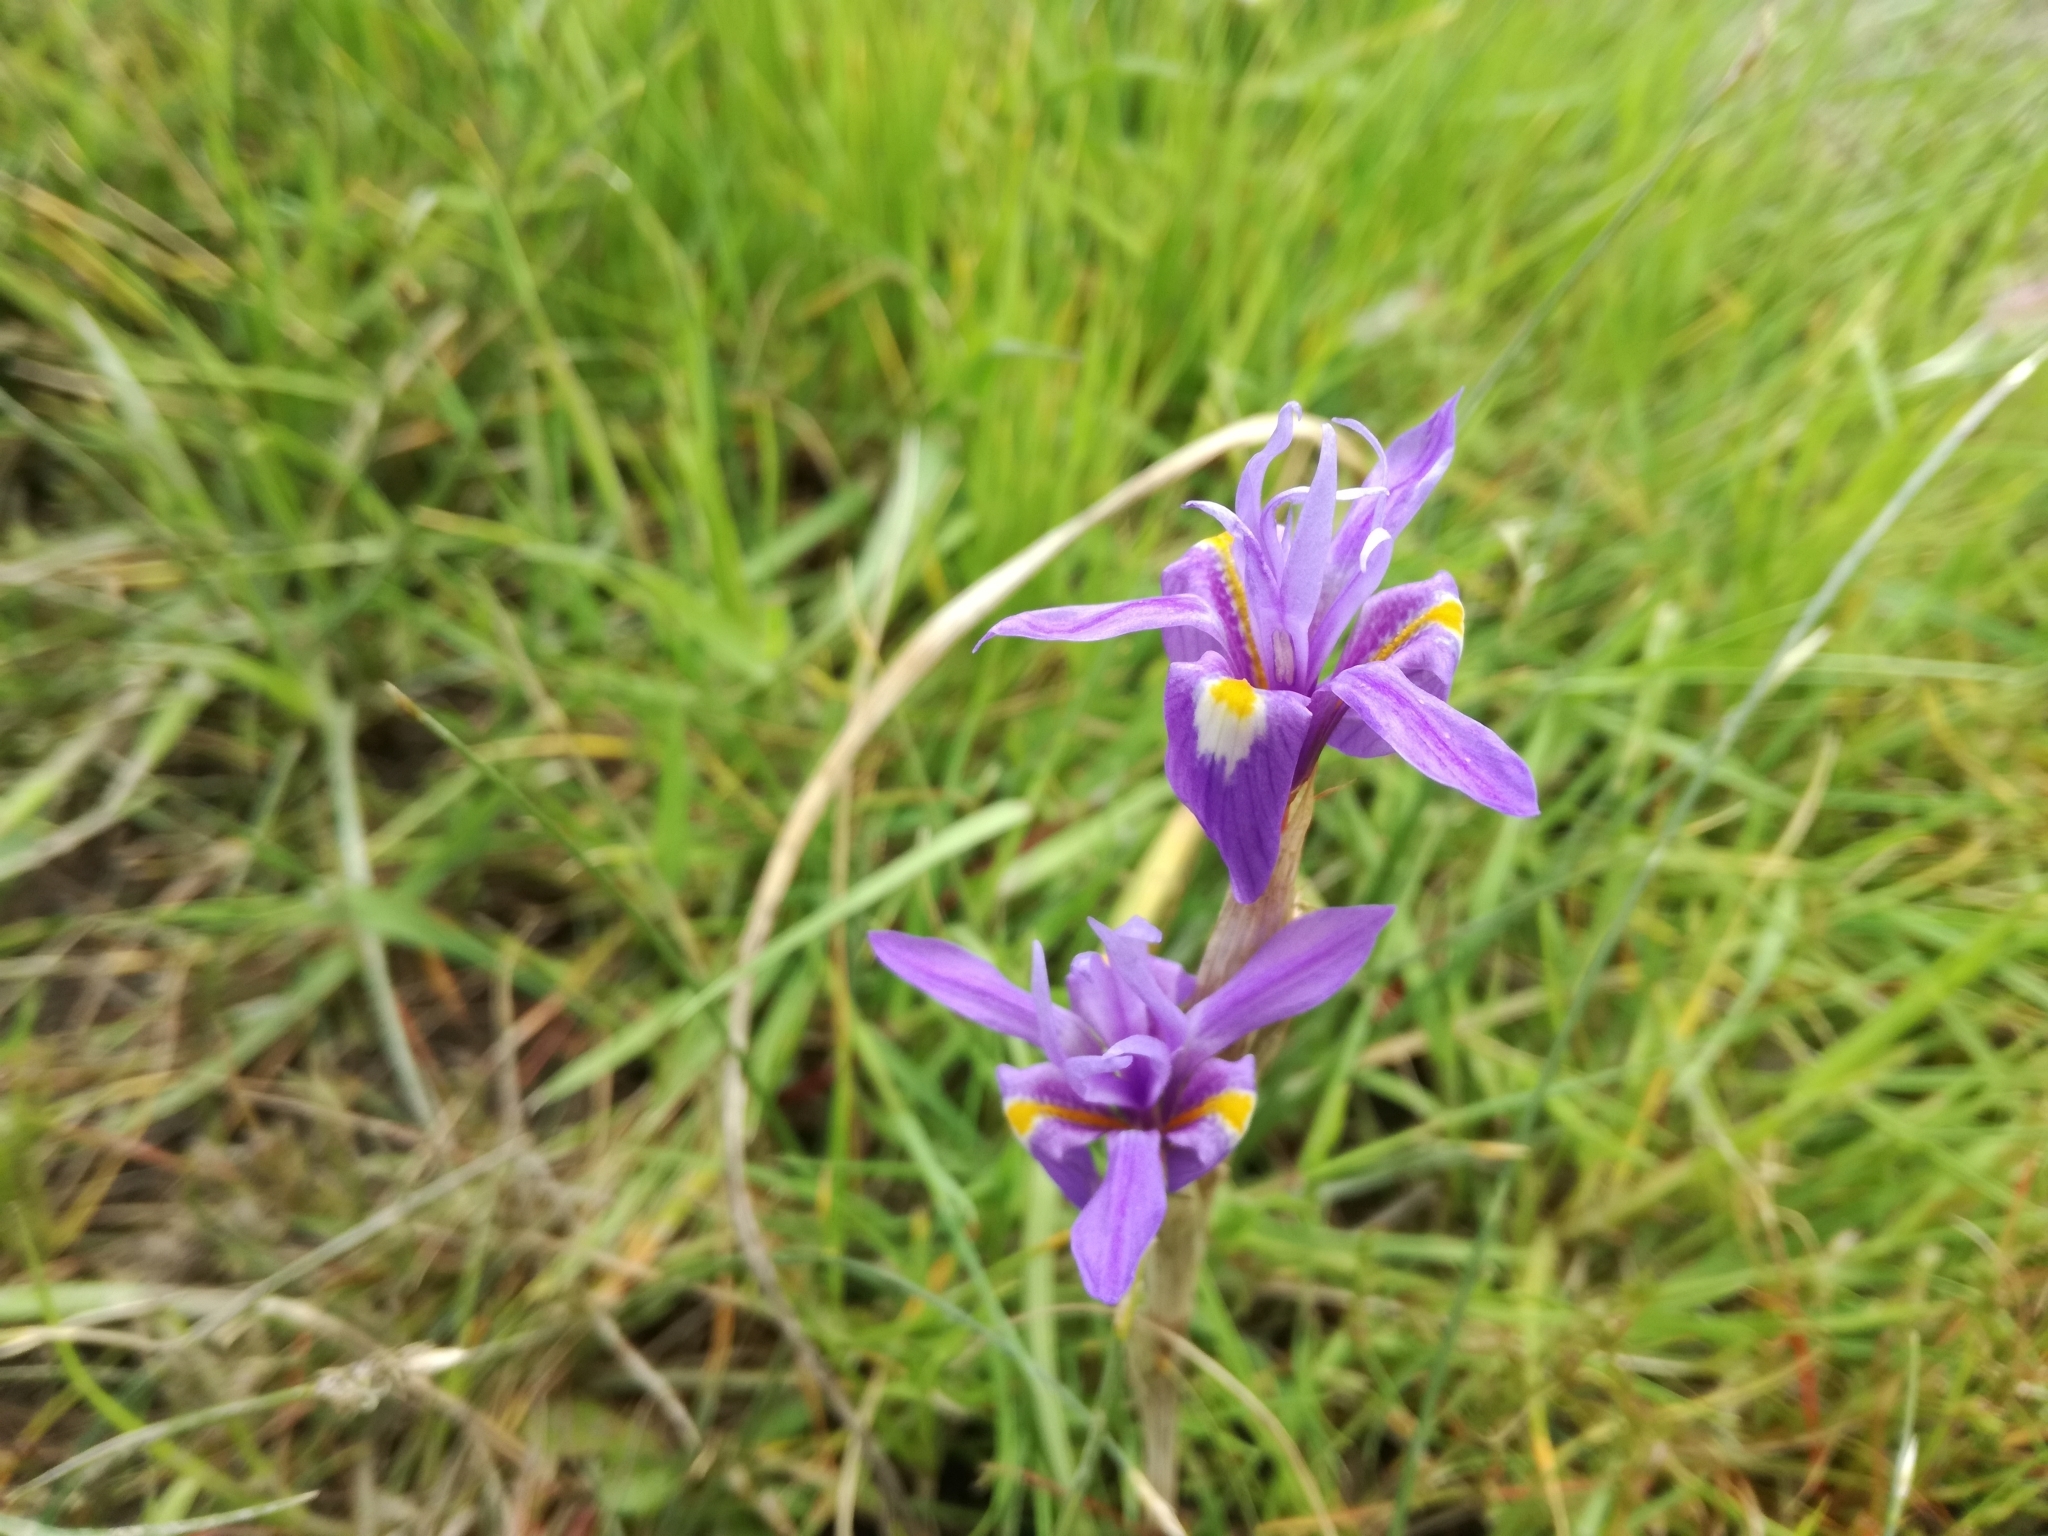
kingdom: Plantae
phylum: Tracheophyta
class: Liliopsida
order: Asparagales
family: Iridaceae
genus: Moraea
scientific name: Moraea sisyrinchium
